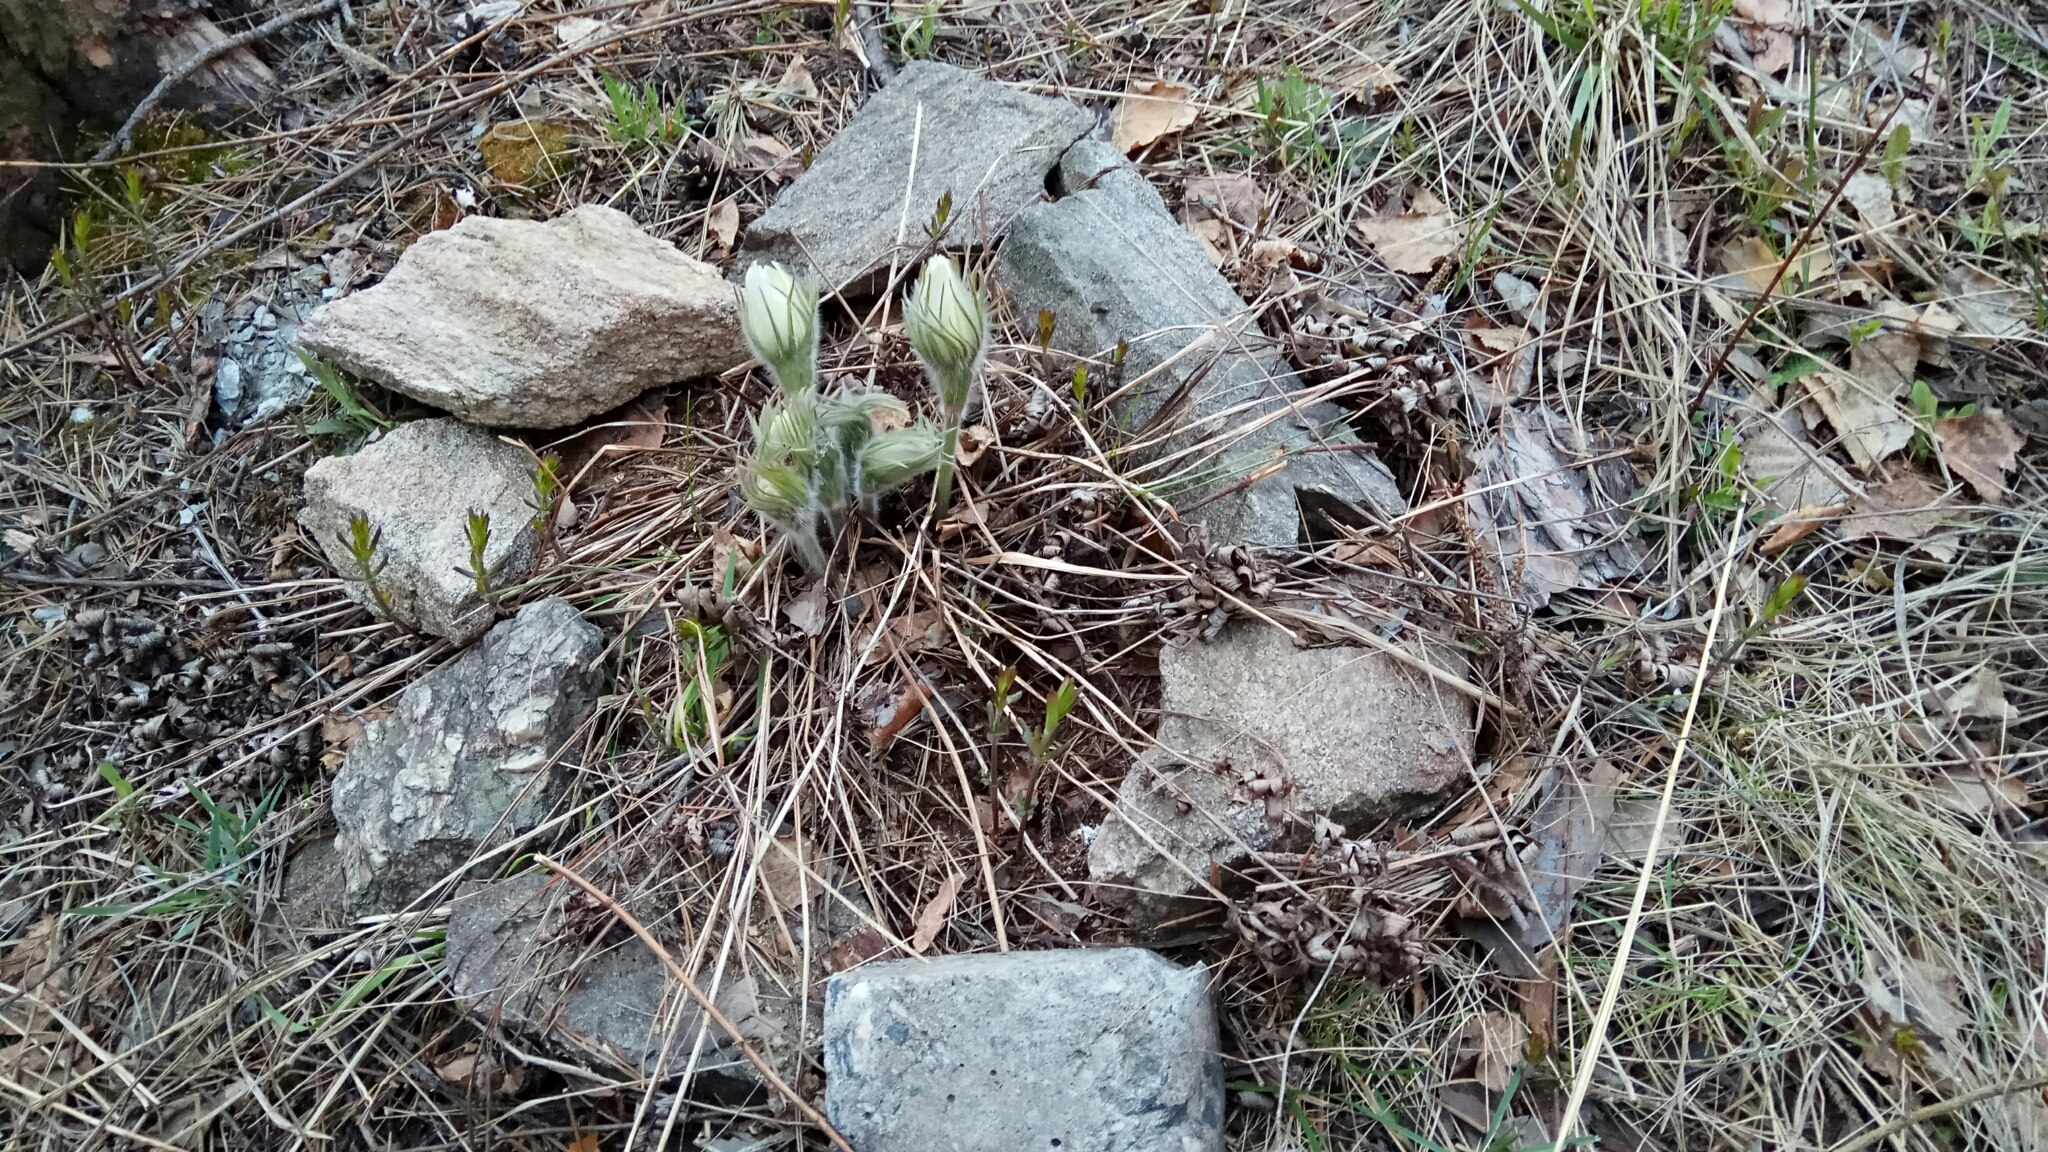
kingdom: Plantae
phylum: Tracheophyta
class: Magnoliopsida
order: Ranunculales
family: Ranunculaceae
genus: Pulsatilla
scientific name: Pulsatilla patens
